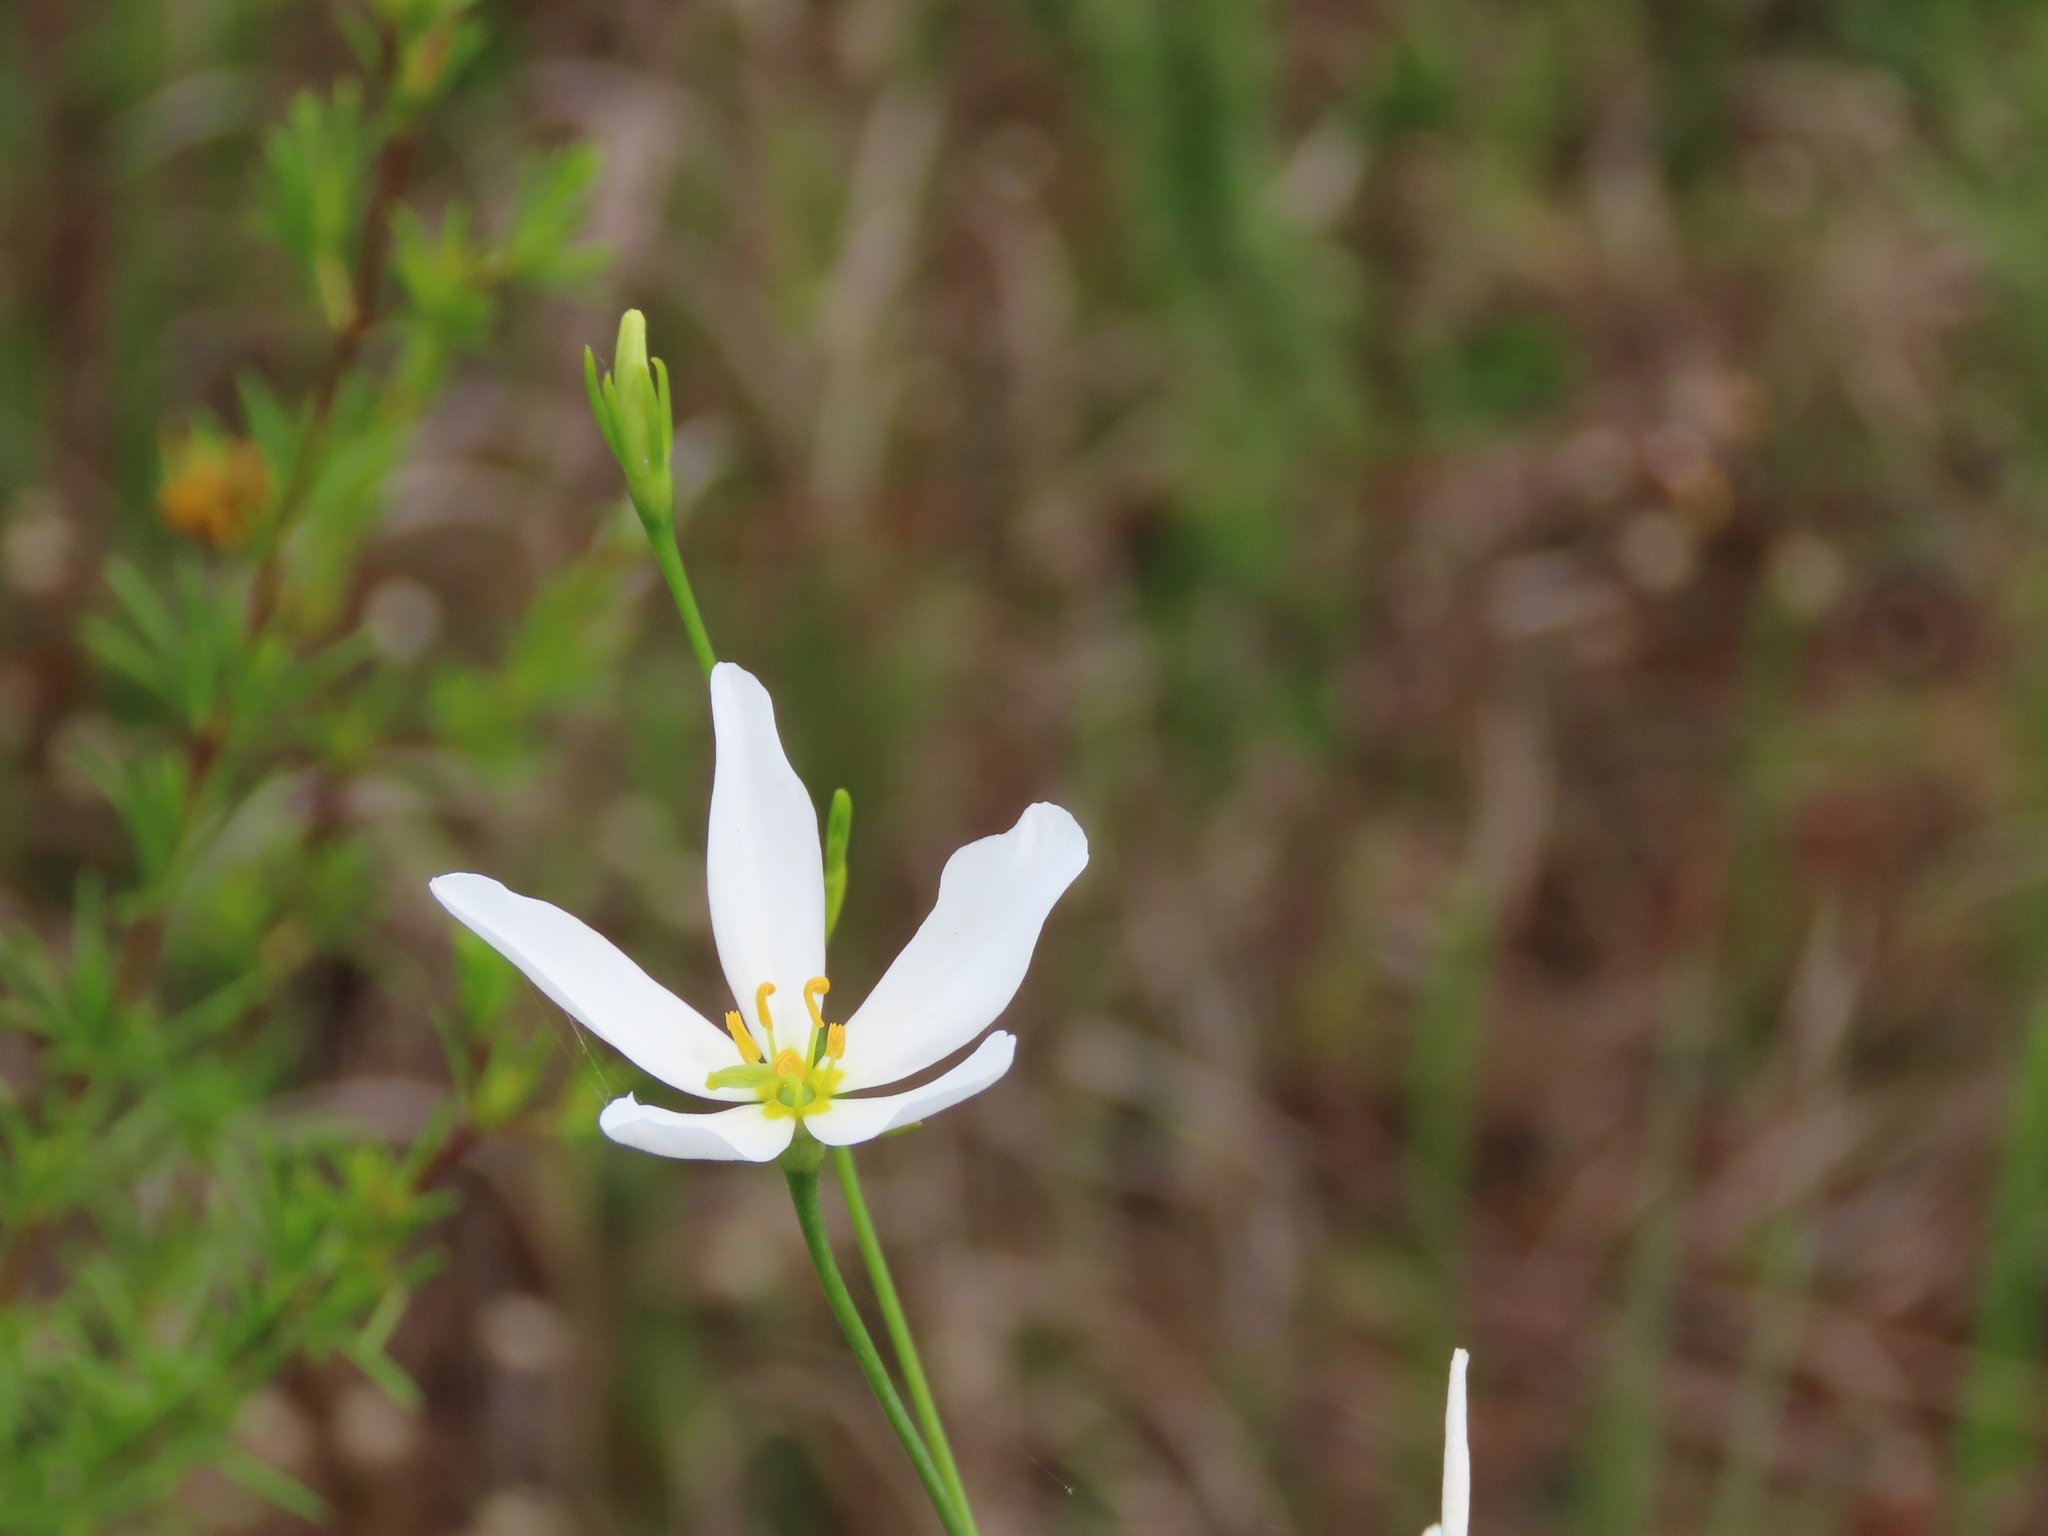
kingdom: Plantae
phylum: Tracheophyta
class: Magnoliopsida
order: Gentianales
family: Gentianaceae
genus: Sabatia
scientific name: Sabatia brevifolia
